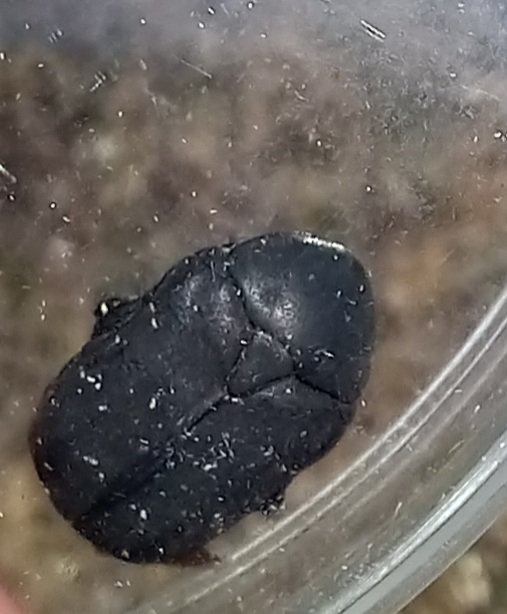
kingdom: Animalia
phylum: Arthropoda
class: Insecta
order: Coleoptera
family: Scarabaeidae
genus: Protaetia
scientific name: Protaetia morio
